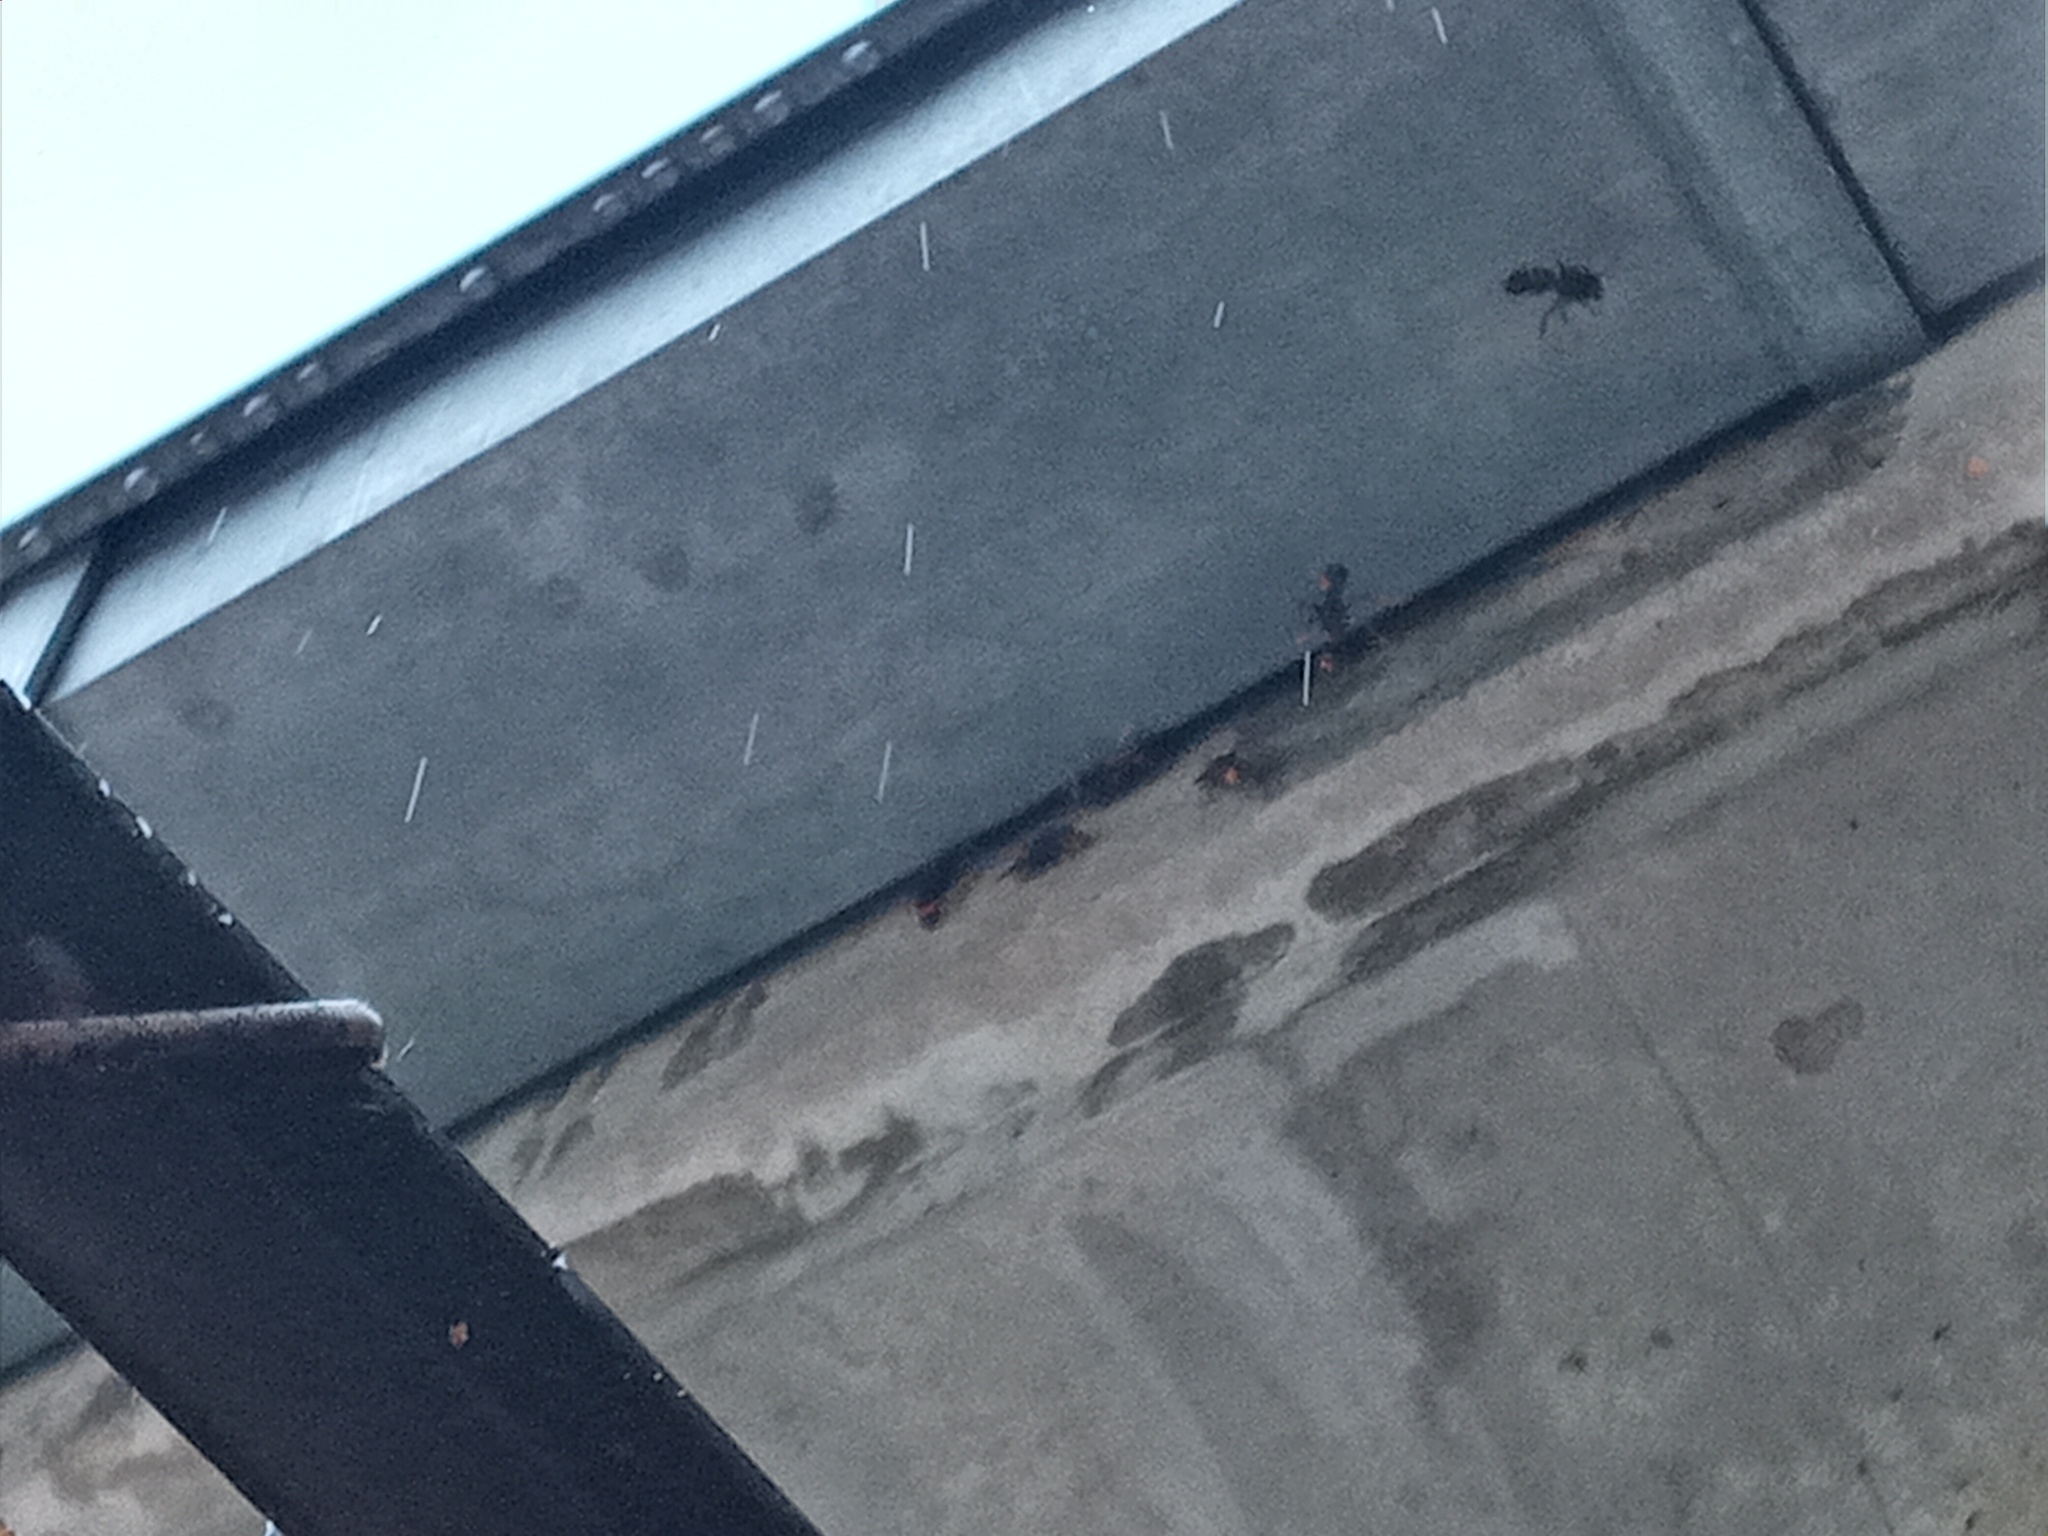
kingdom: Animalia
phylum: Arthropoda
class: Insecta
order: Hymenoptera
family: Vespidae
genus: Vespa
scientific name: Vespa velutina
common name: Asian hornet
